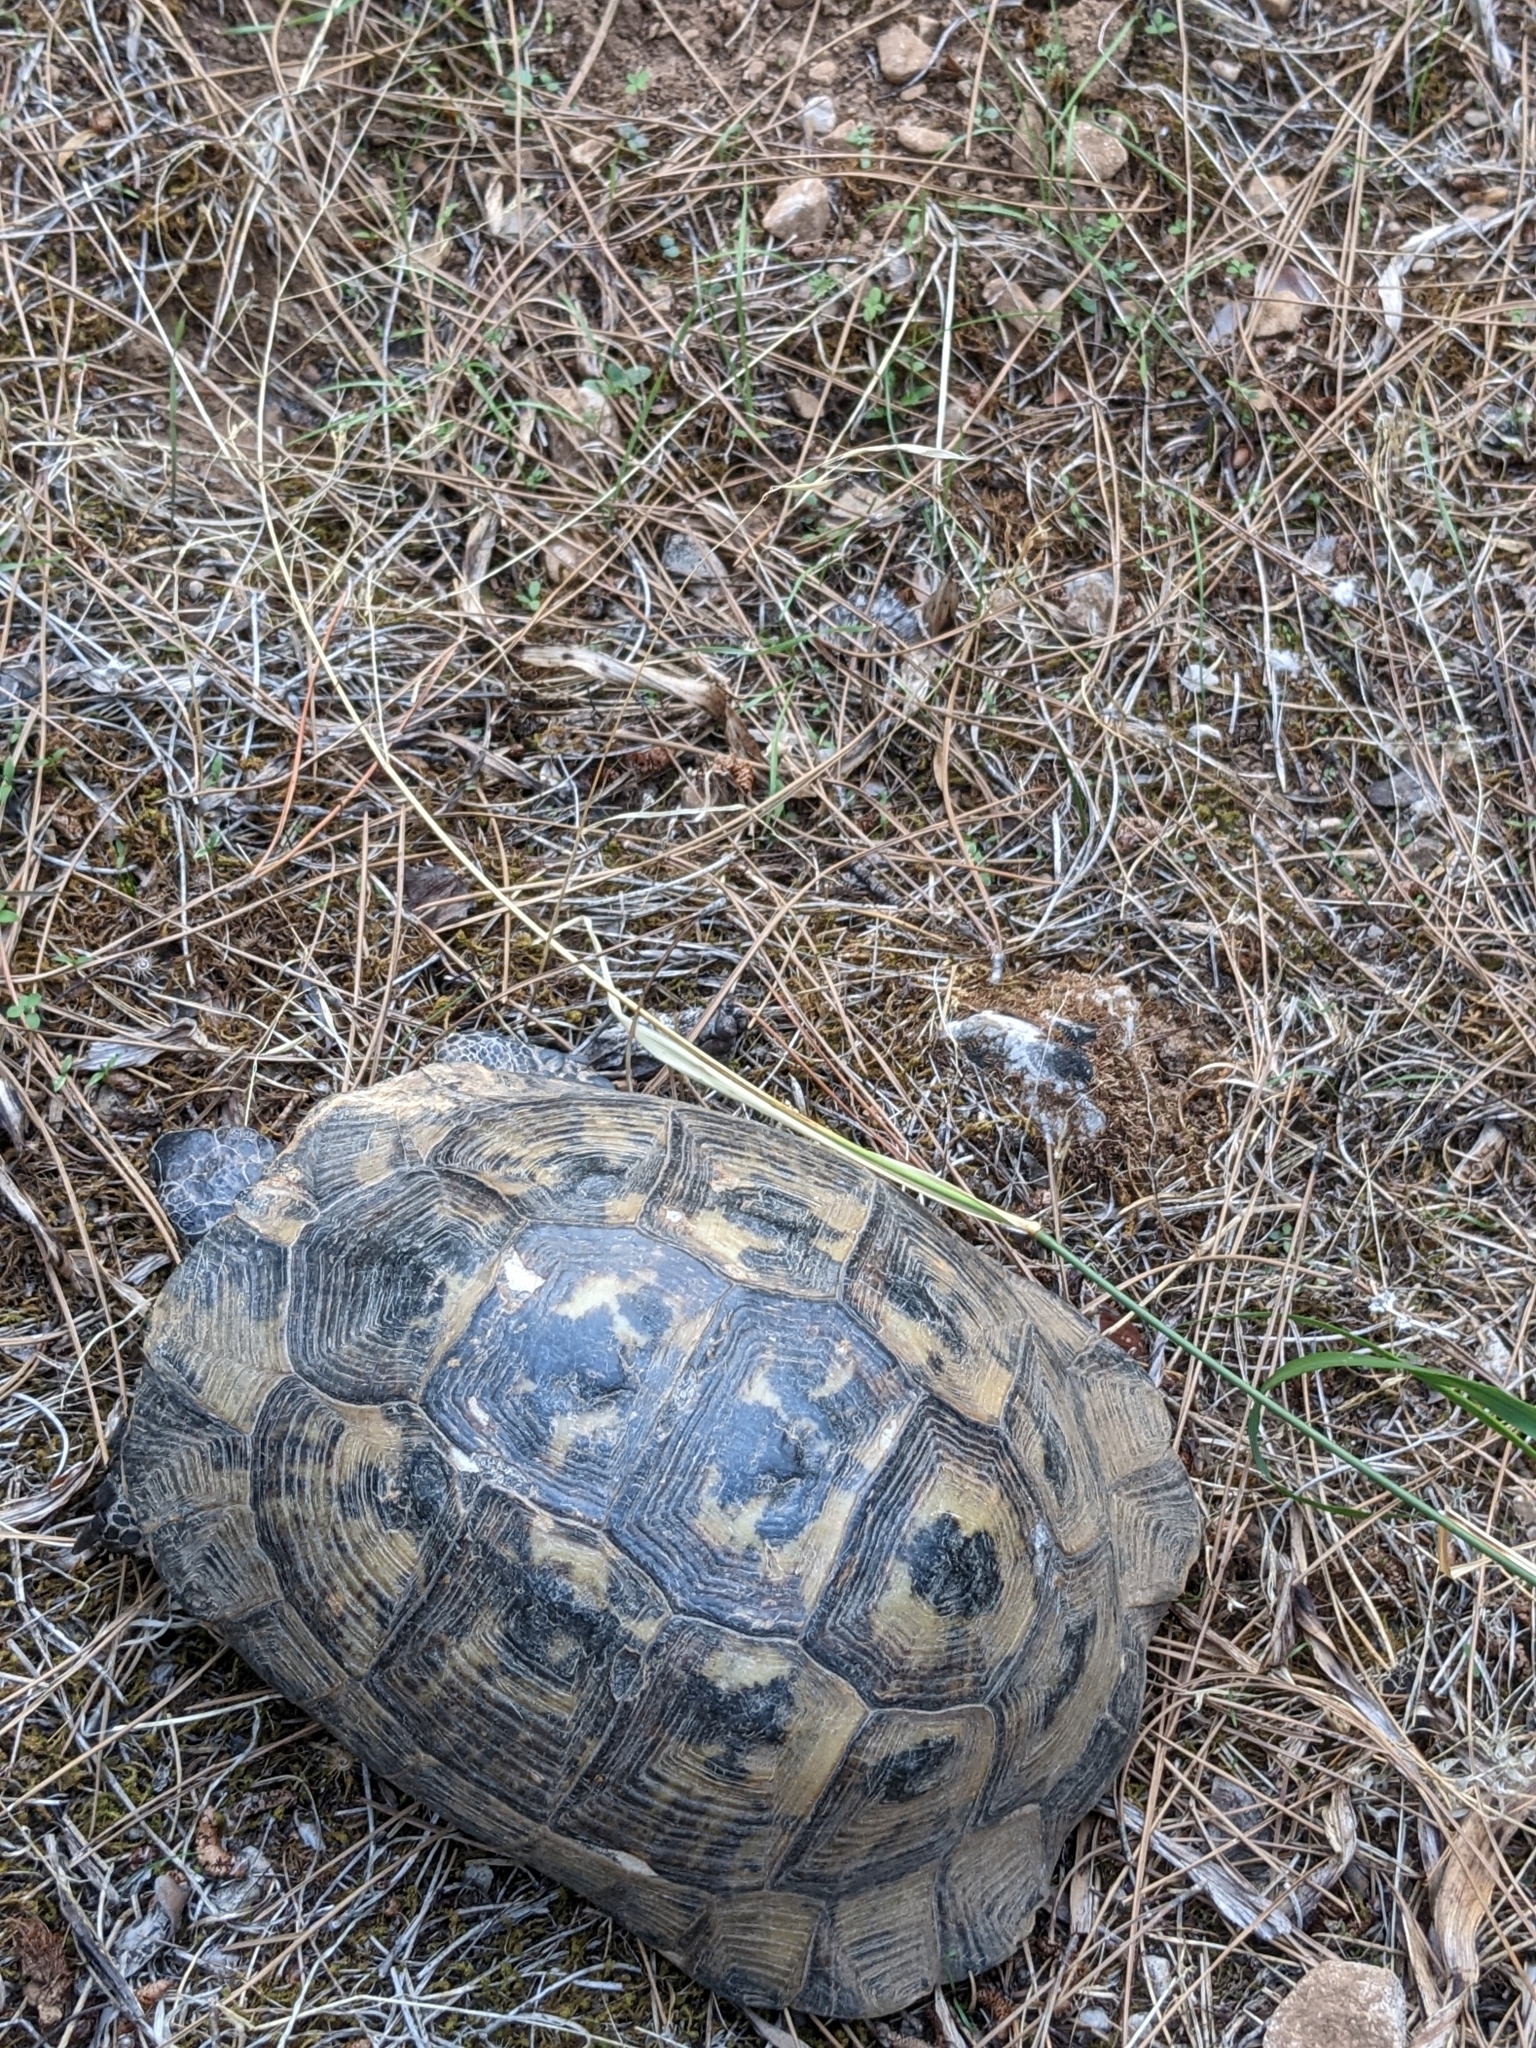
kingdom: Animalia
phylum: Chordata
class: Testudines
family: Testudinidae
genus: Testudo
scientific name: Testudo graeca
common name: Common tortoise
